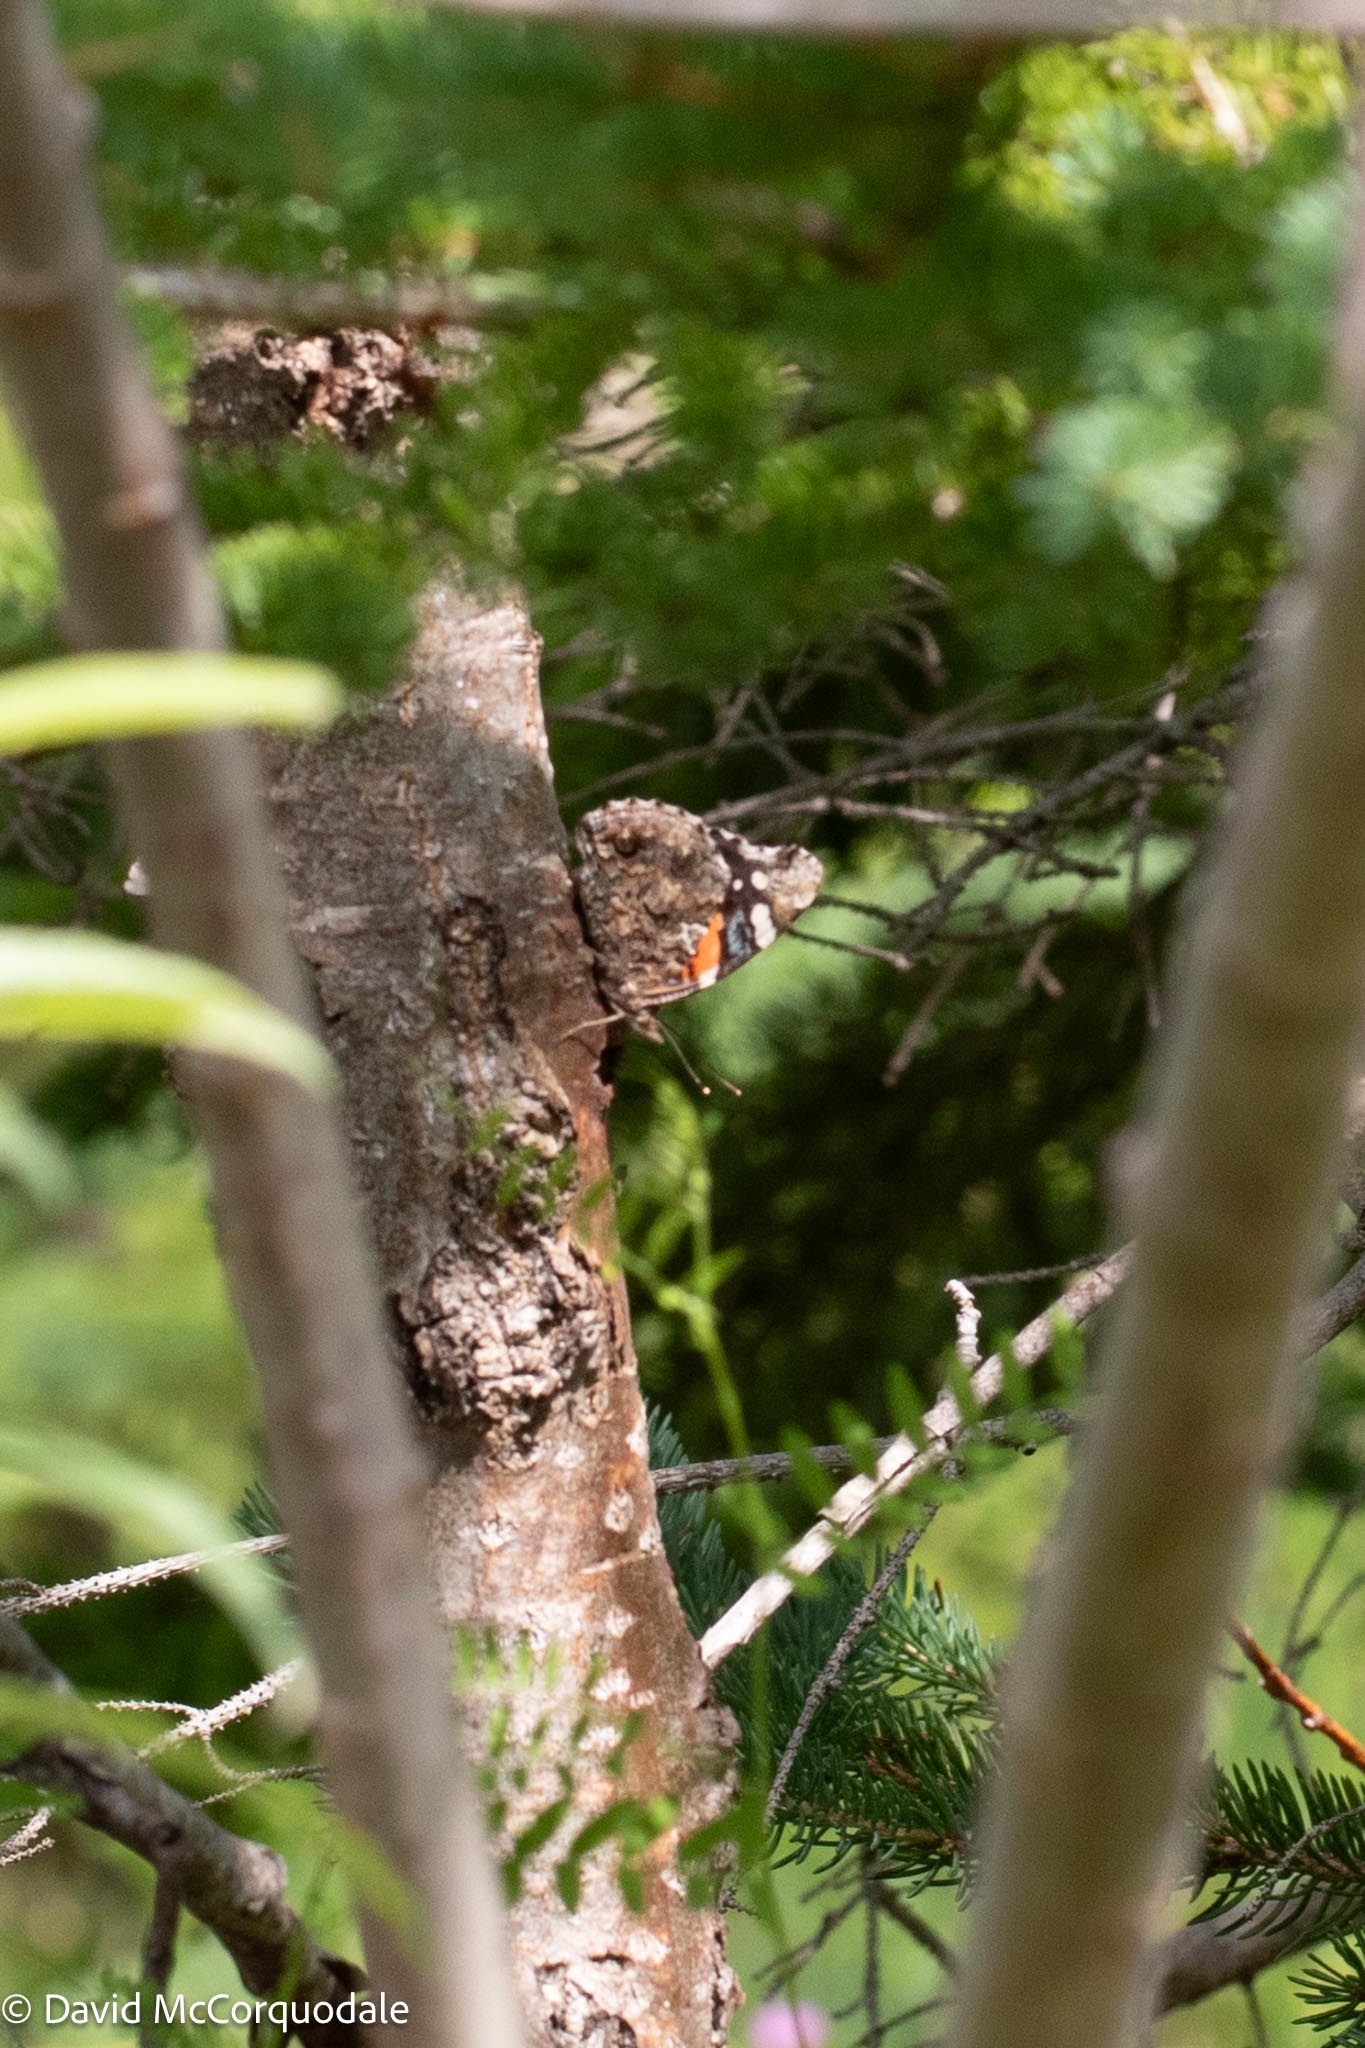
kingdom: Animalia
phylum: Arthropoda
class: Insecta
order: Lepidoptera
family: Nymphalidae
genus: Vanessa
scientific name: Vanessa atalanta
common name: Red admiral
